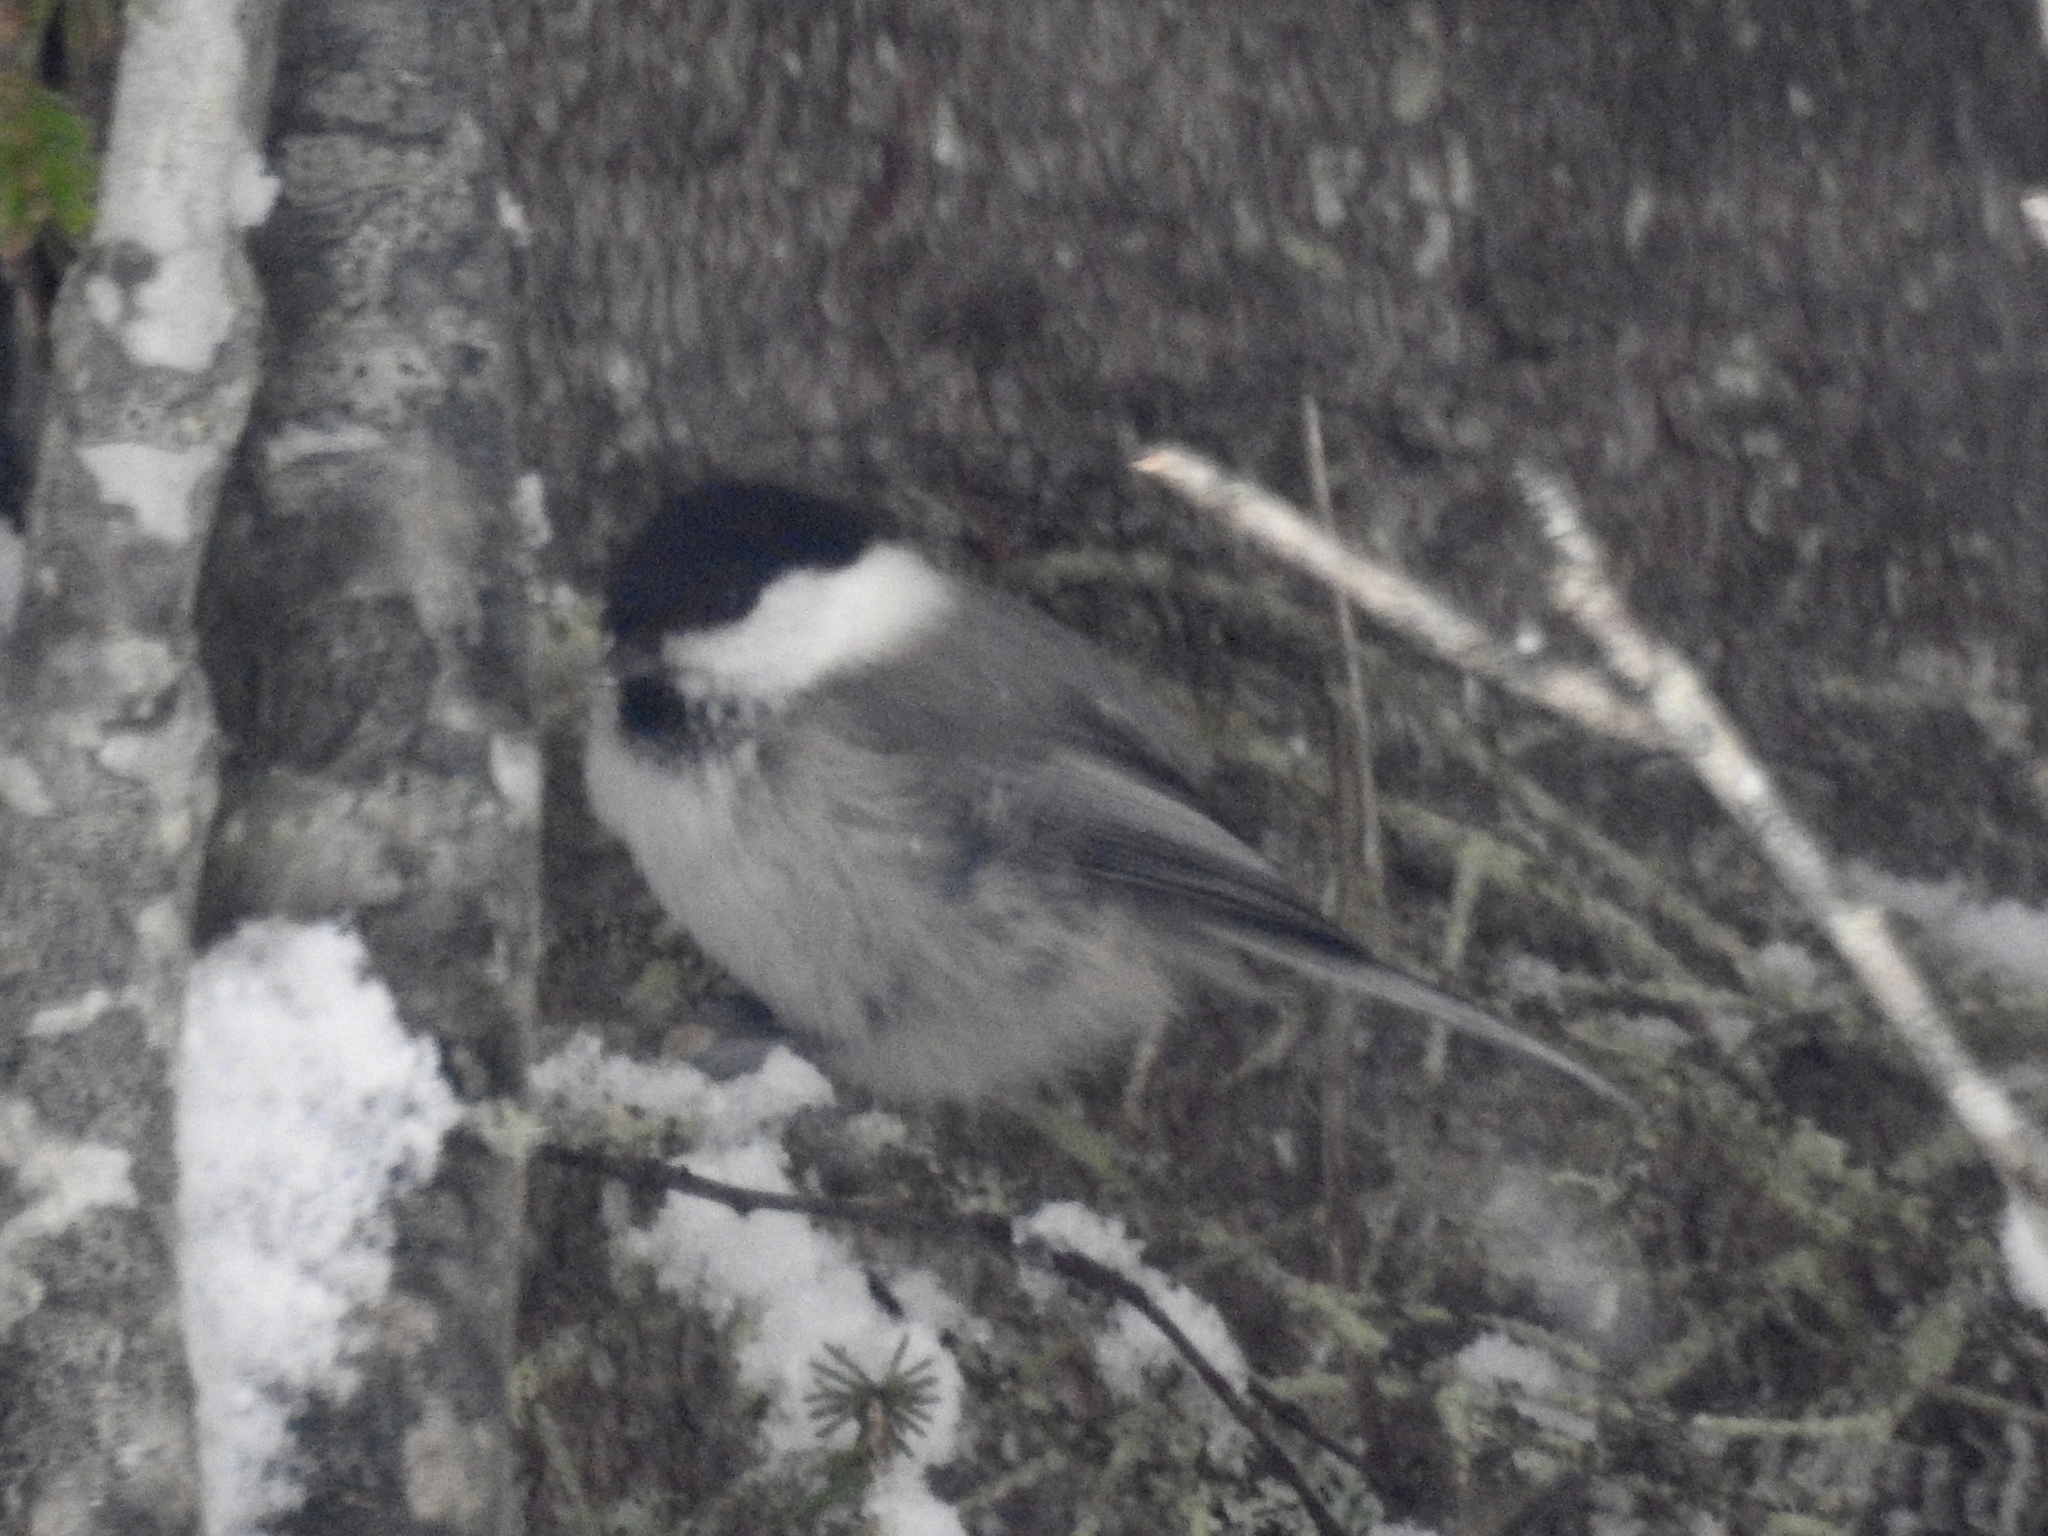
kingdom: Animalia
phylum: Chordata
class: Aves
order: Passeriformes
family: Paridae
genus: Poecile
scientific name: Poecile montanus
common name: Willow tit
